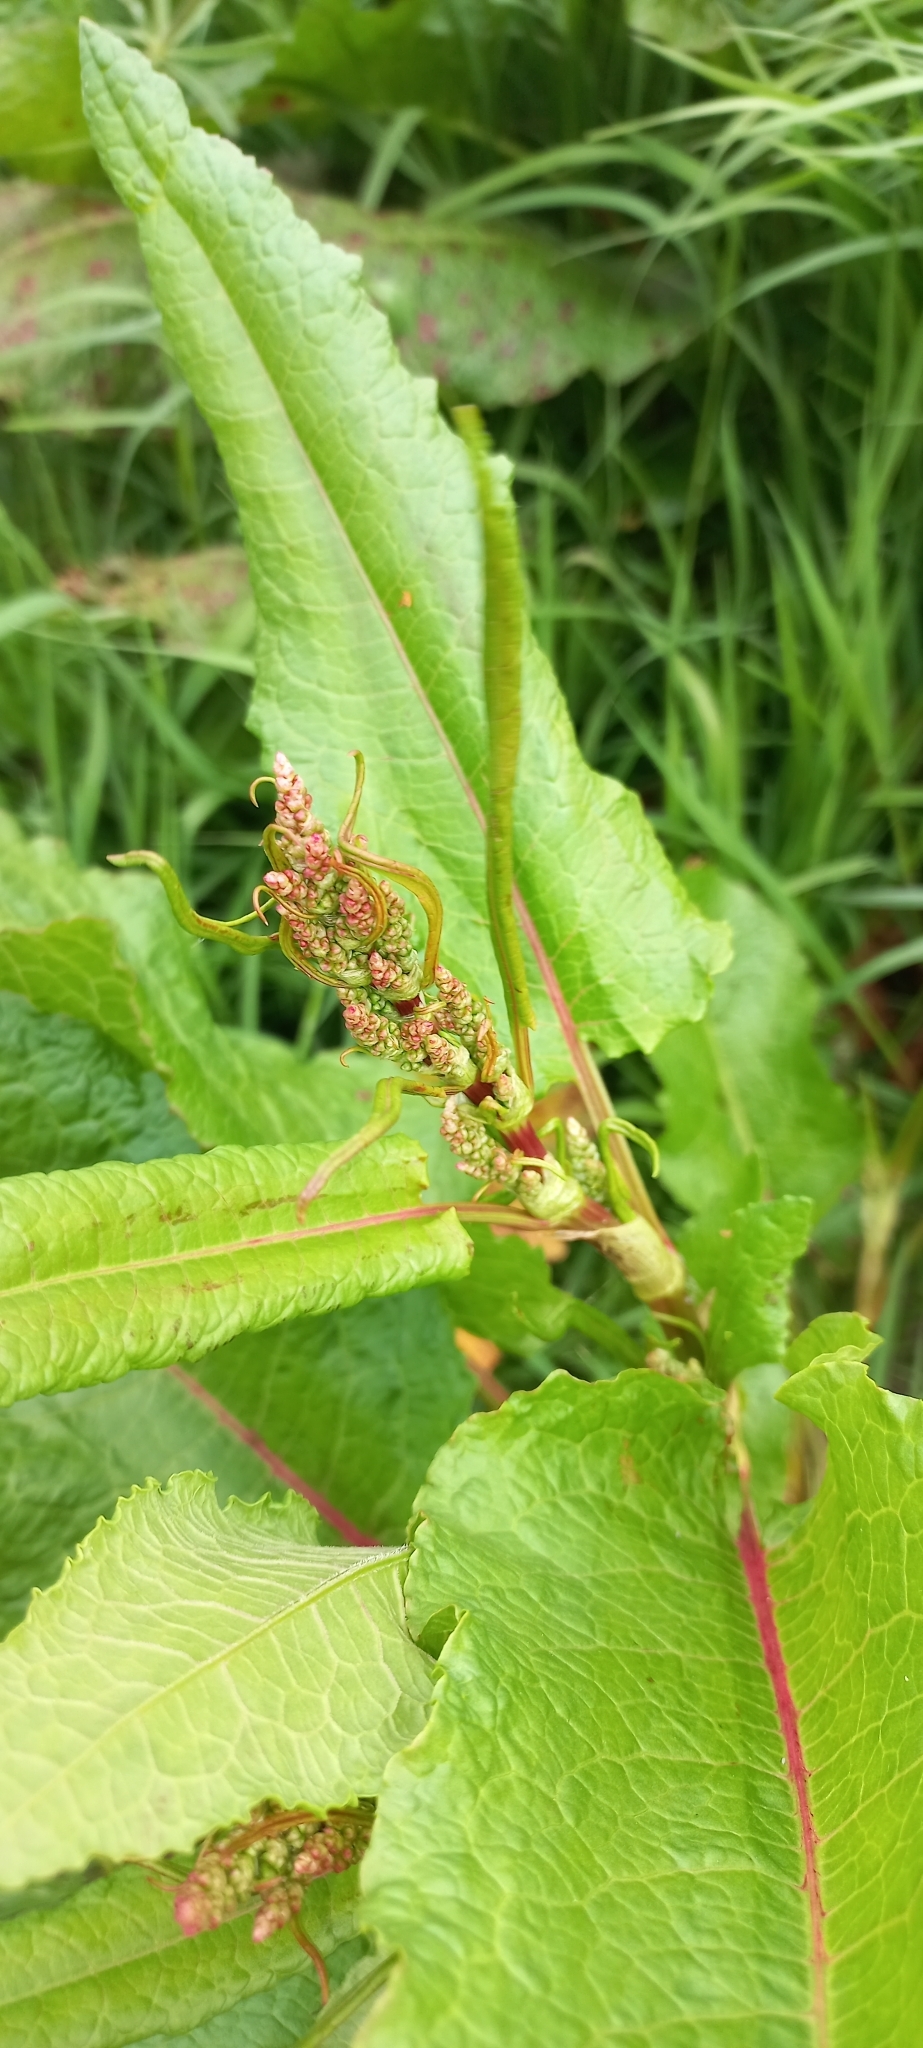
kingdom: Plantae
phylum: Tracheophyta
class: Magnoliopsida
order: Caryophyllales
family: Polygonaceae
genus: Rumex
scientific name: Rumex obtusifolius
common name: Bitter dock
